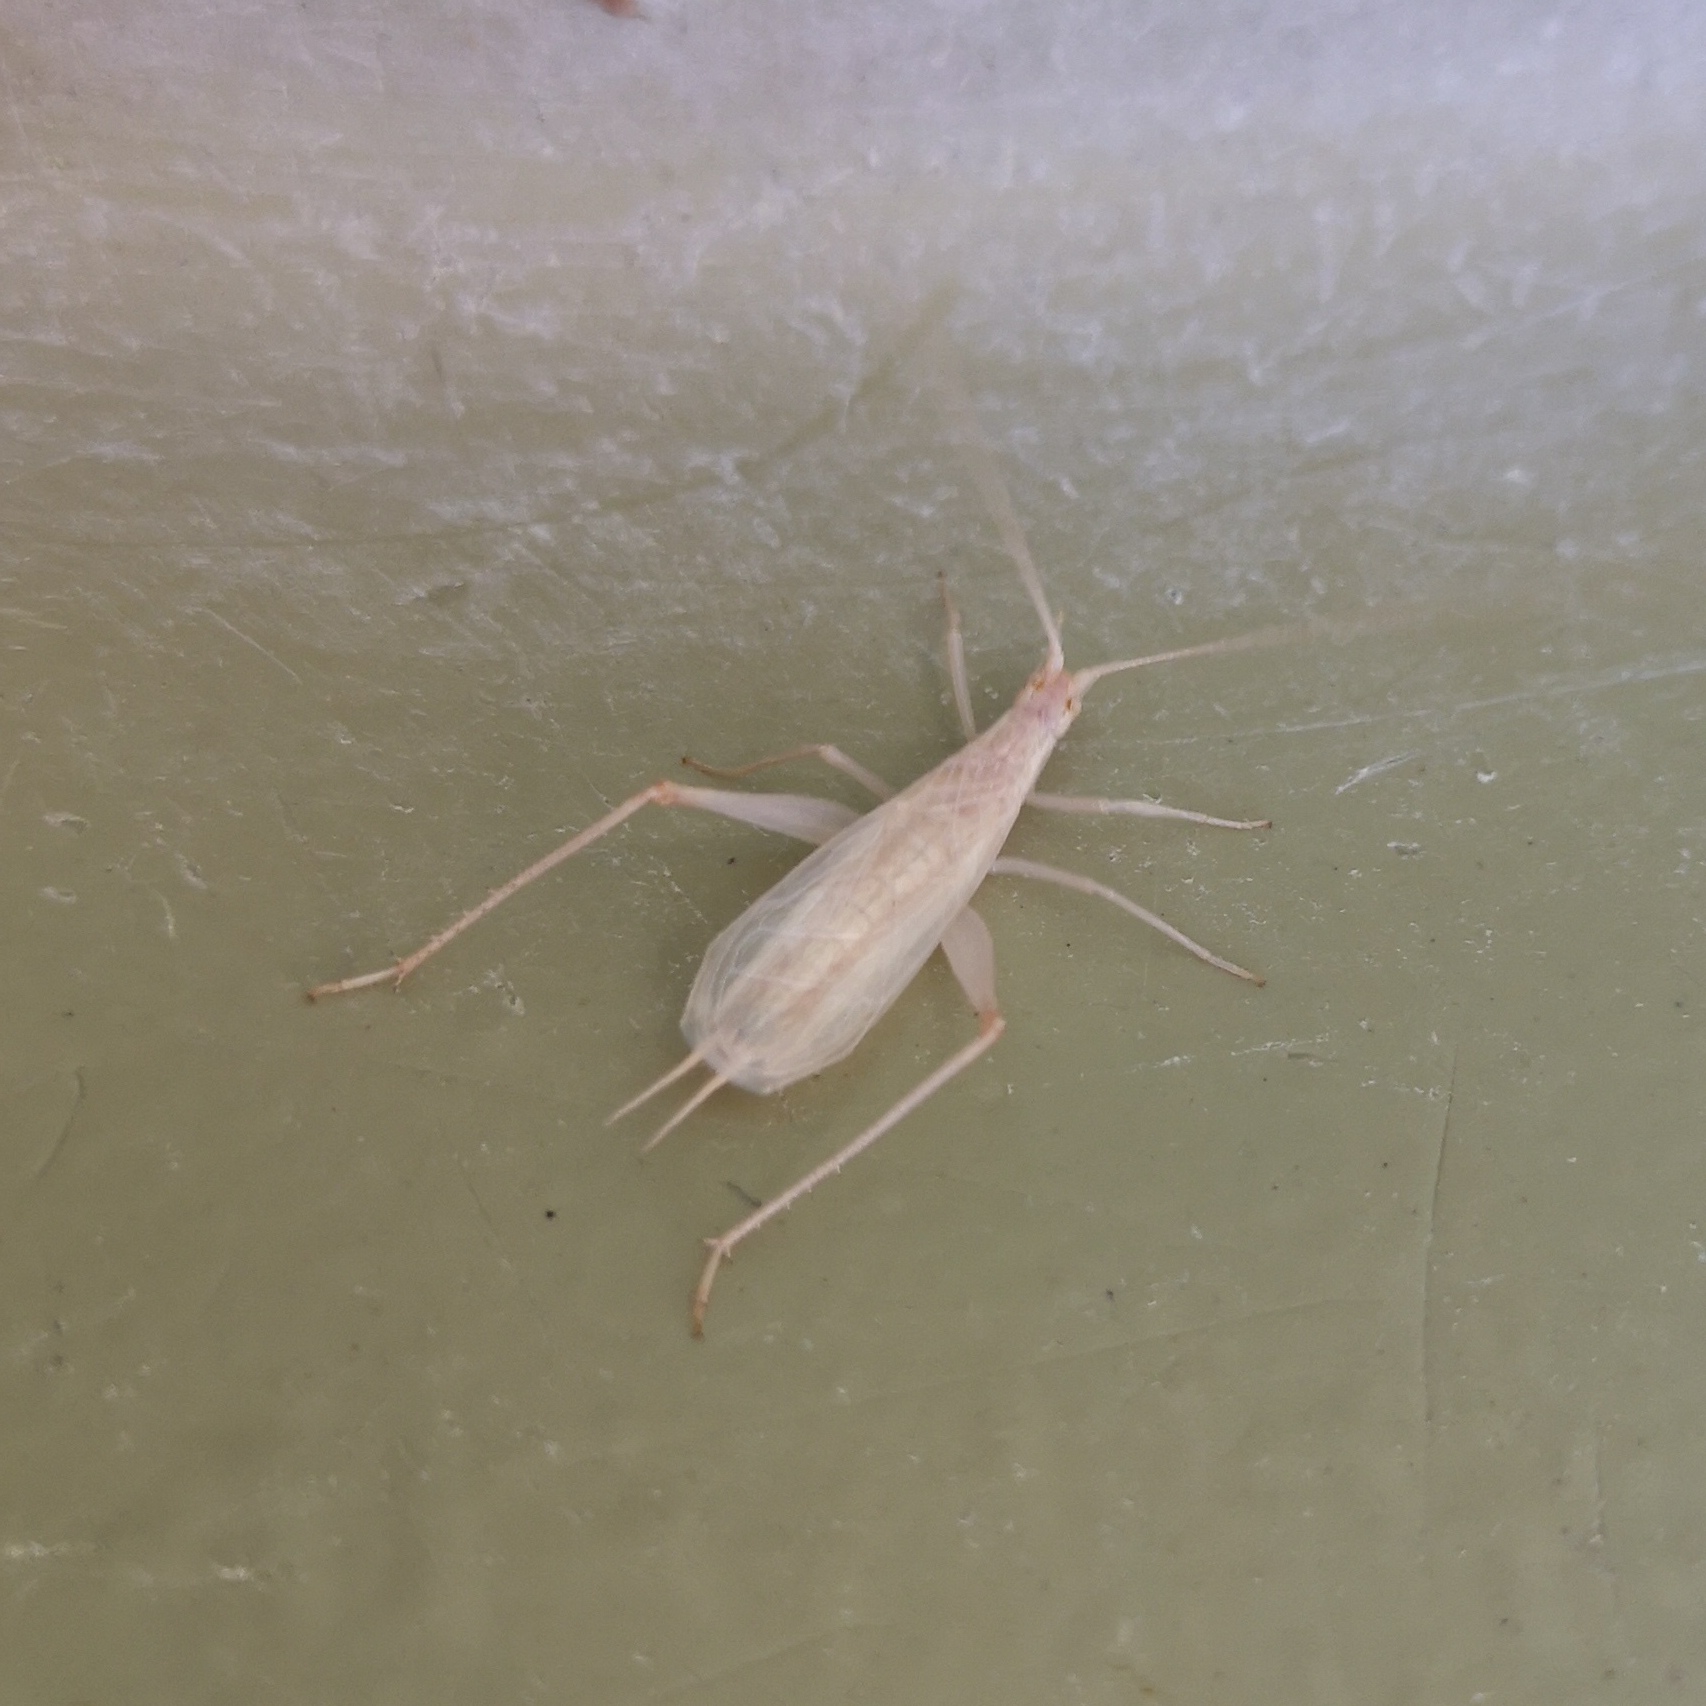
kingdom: Animalia
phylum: Arthropoda
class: Insecta
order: Orthoptera
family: Gryllidae
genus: Oecanthus
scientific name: Oecanthus pellucens
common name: Tree-cricket
